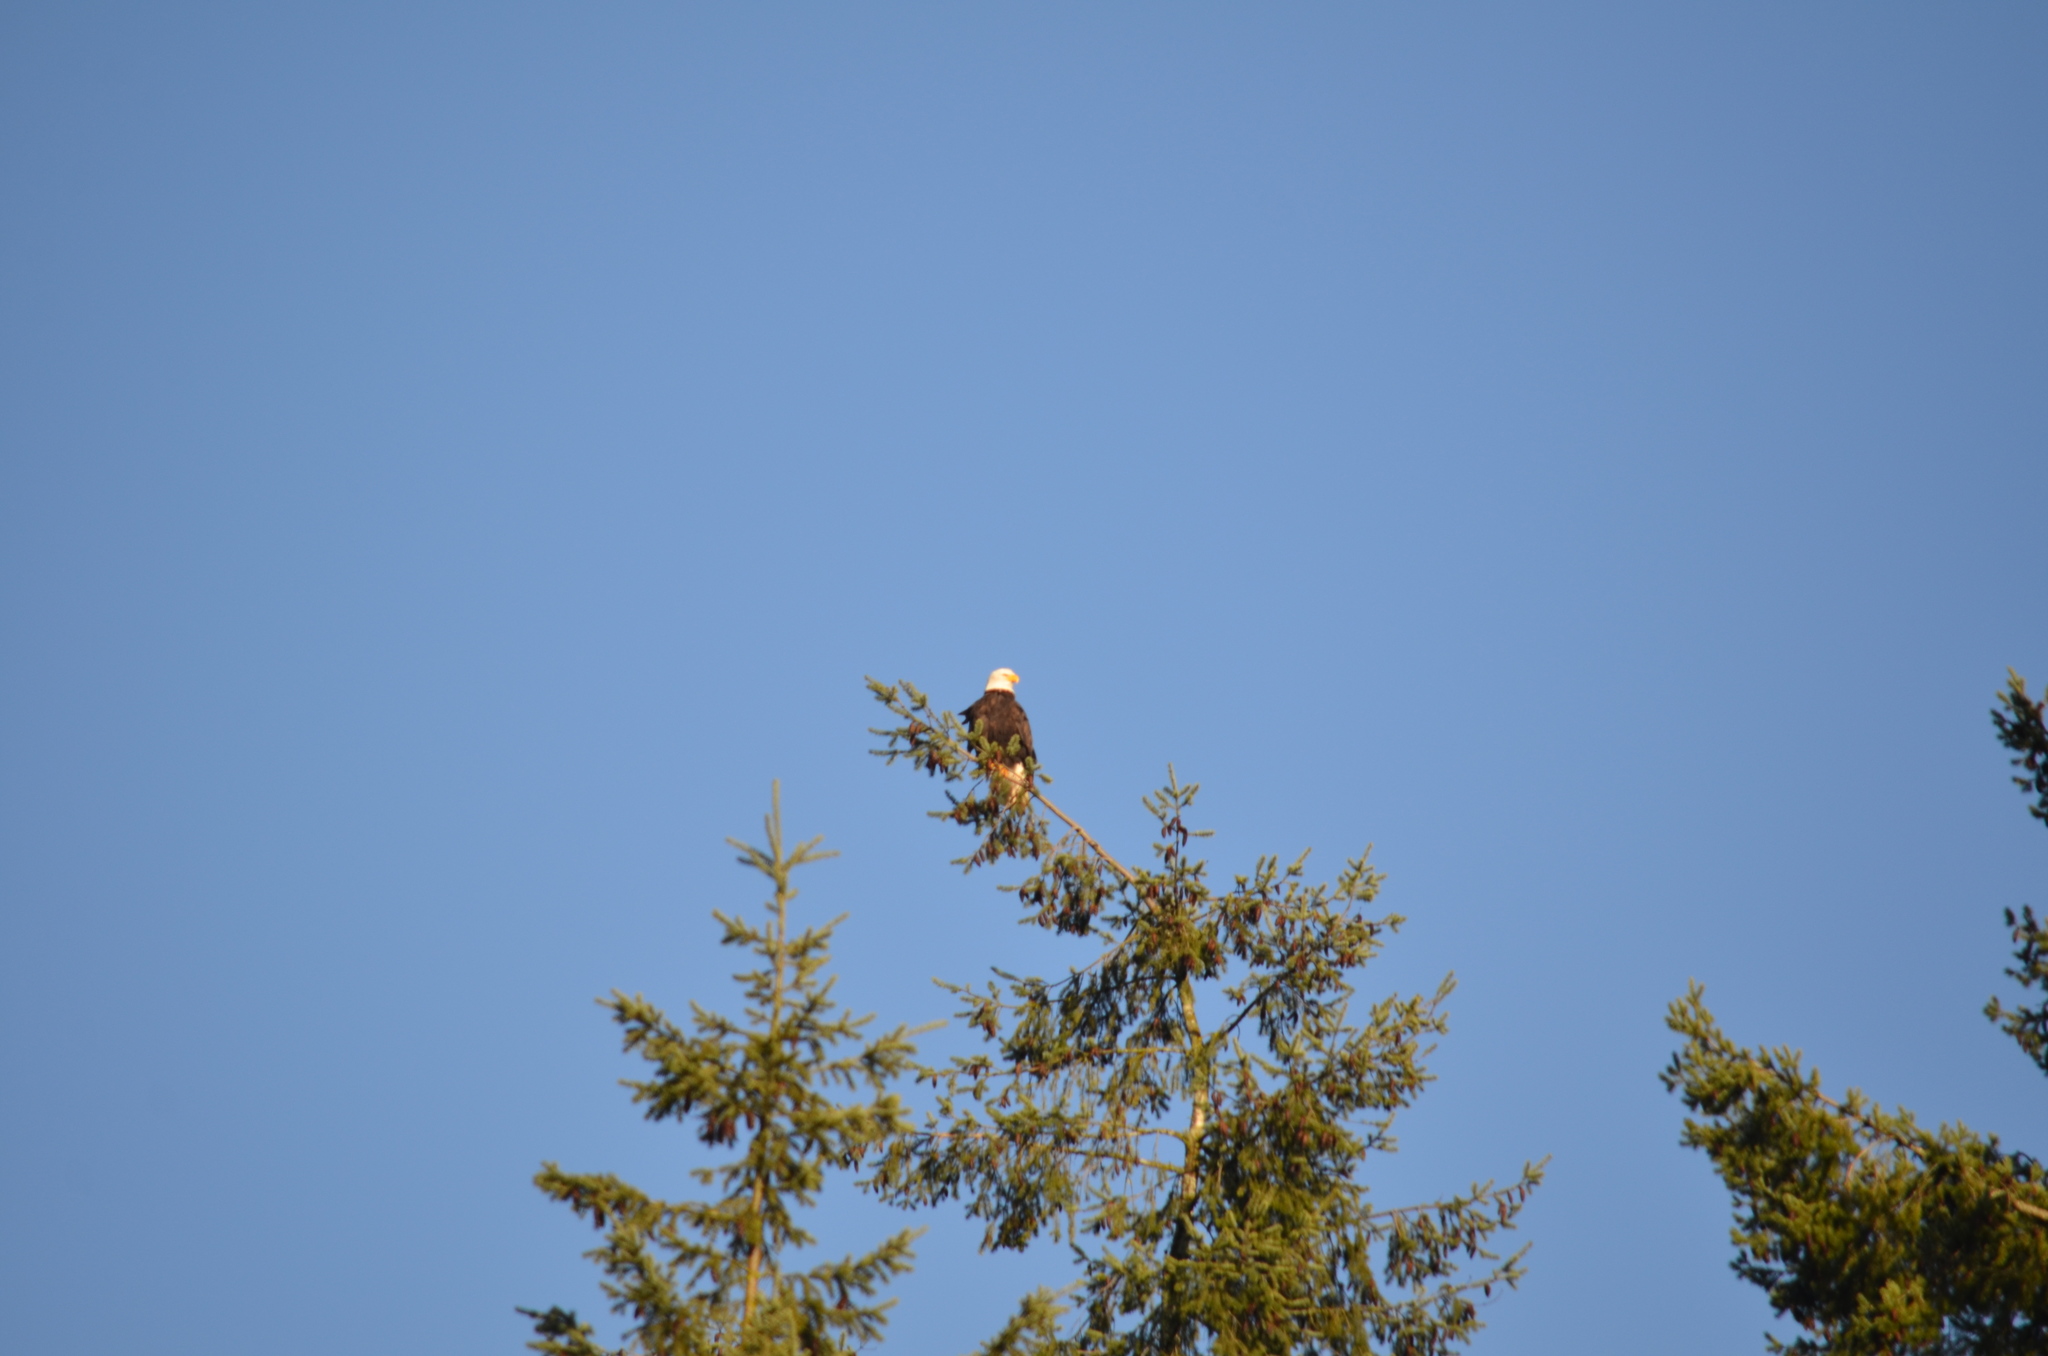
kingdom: Animalia
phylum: Chordata
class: Aves
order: Accipitriformes
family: Accipitridae
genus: Haliaeetus
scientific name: Haliaeetus leucocephalus
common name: Bald eagle
